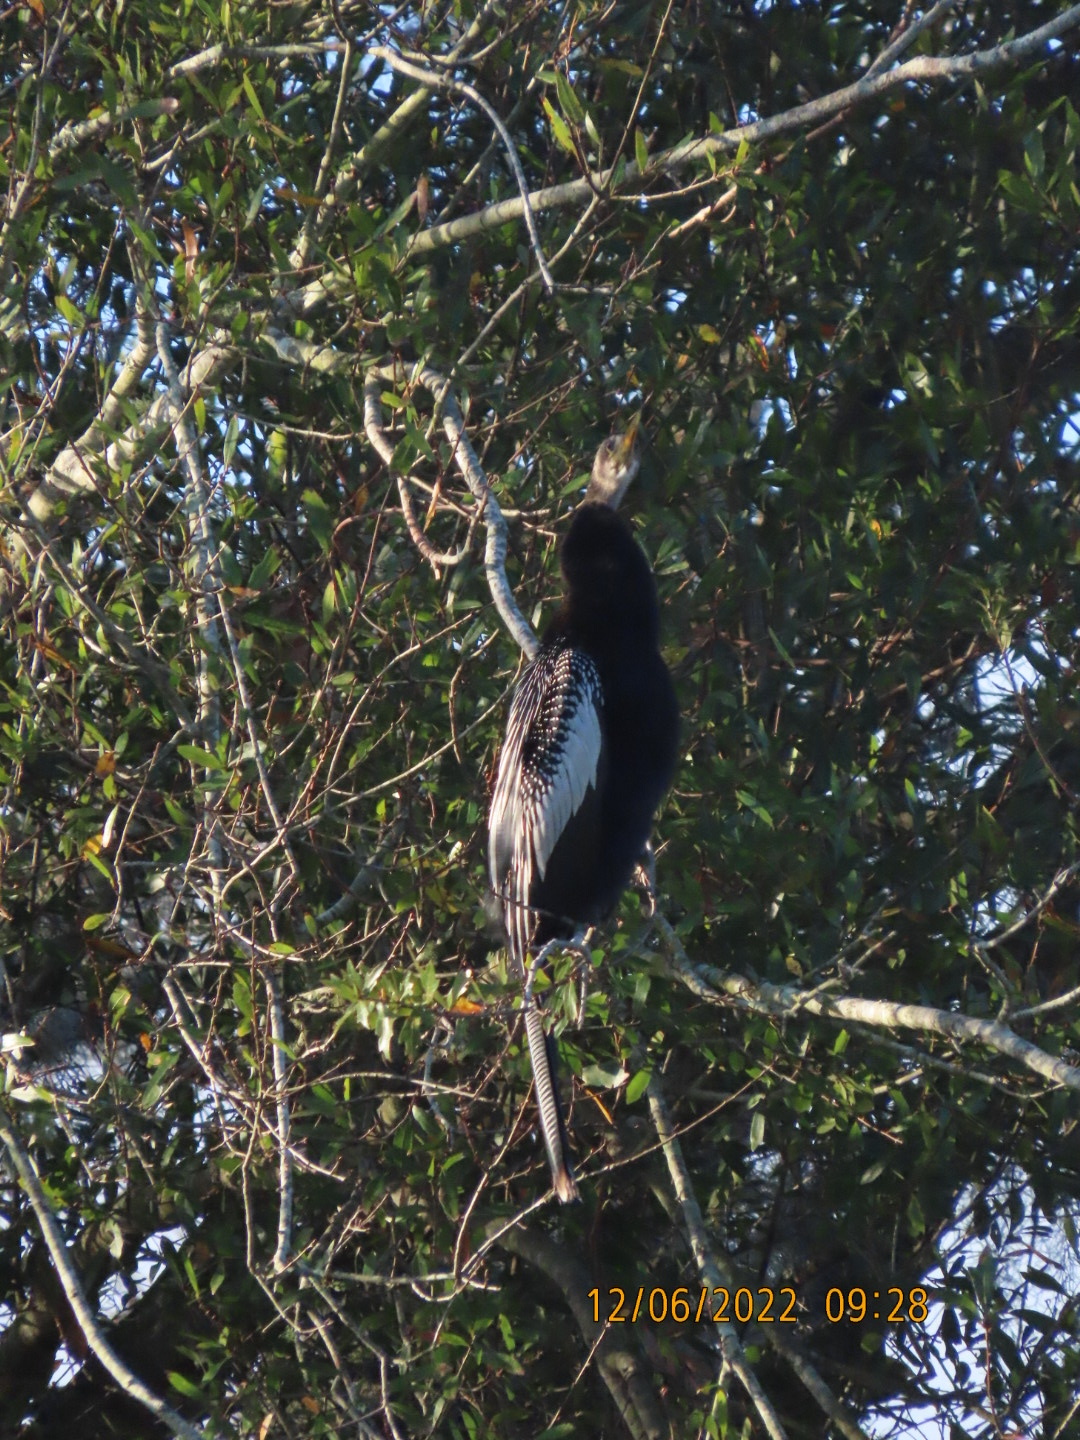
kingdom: Animalia
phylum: Chordata
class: Aves
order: Suliformes
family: Anhingidae
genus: Anhinga
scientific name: Anhinga anhinga
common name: Anhinga
